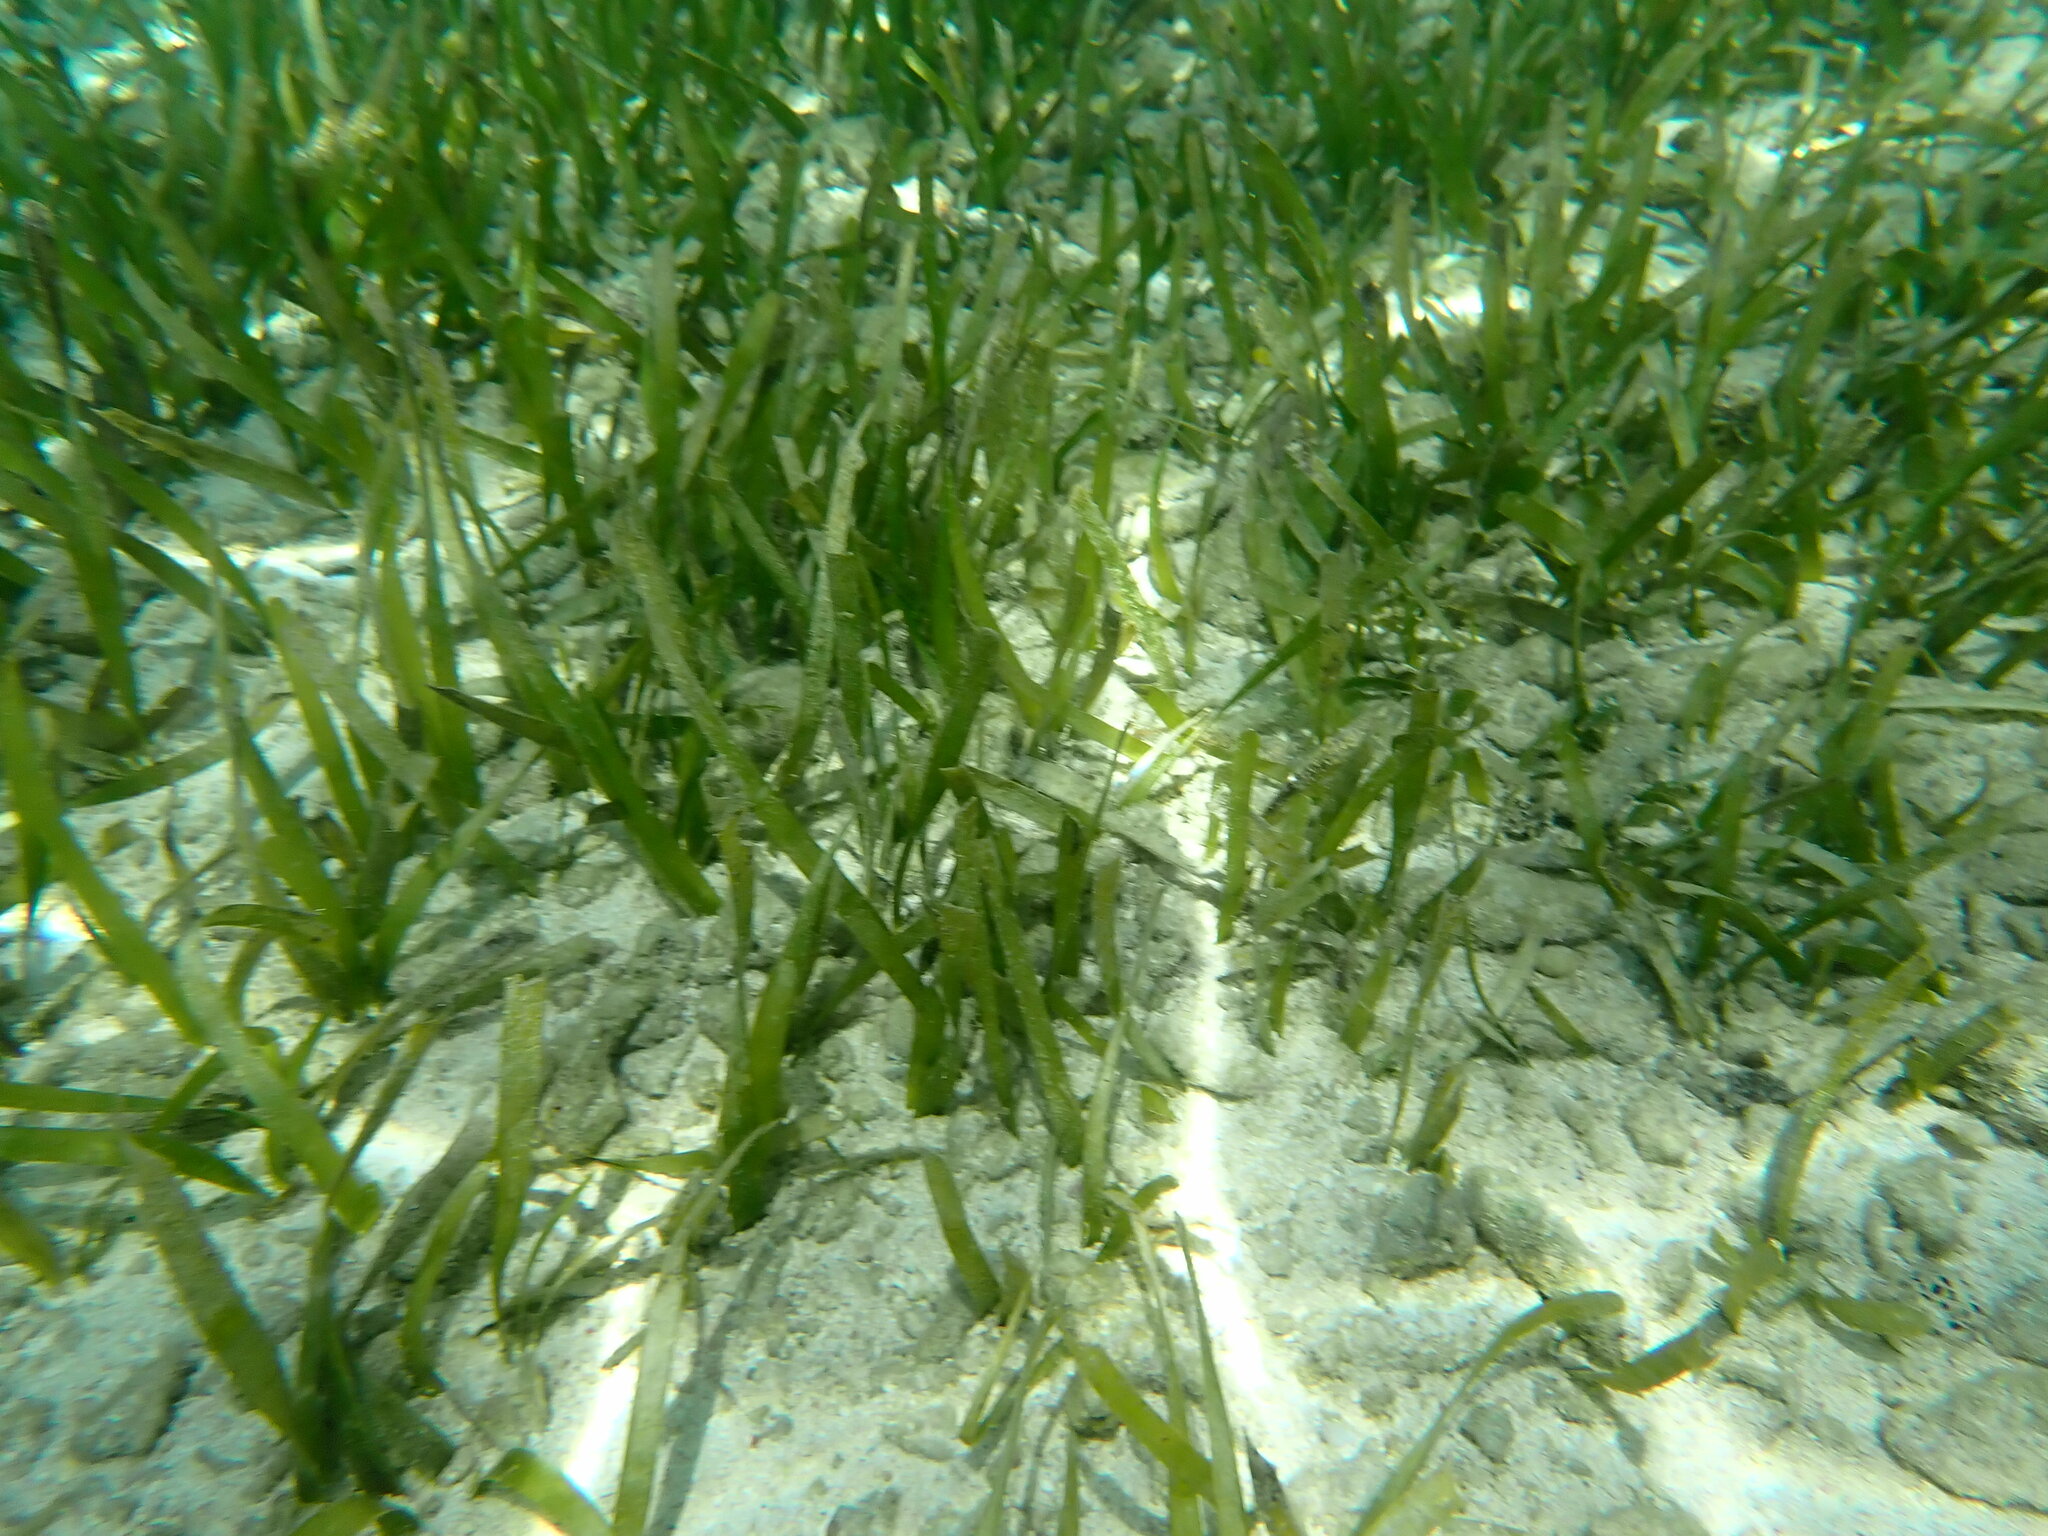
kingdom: Plantae
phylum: Tracheophyta
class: Liliopsida
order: Alismatales
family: Hydrocharitaceae
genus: Thalassia
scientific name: Thalassia testudinum
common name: Species code: tt
